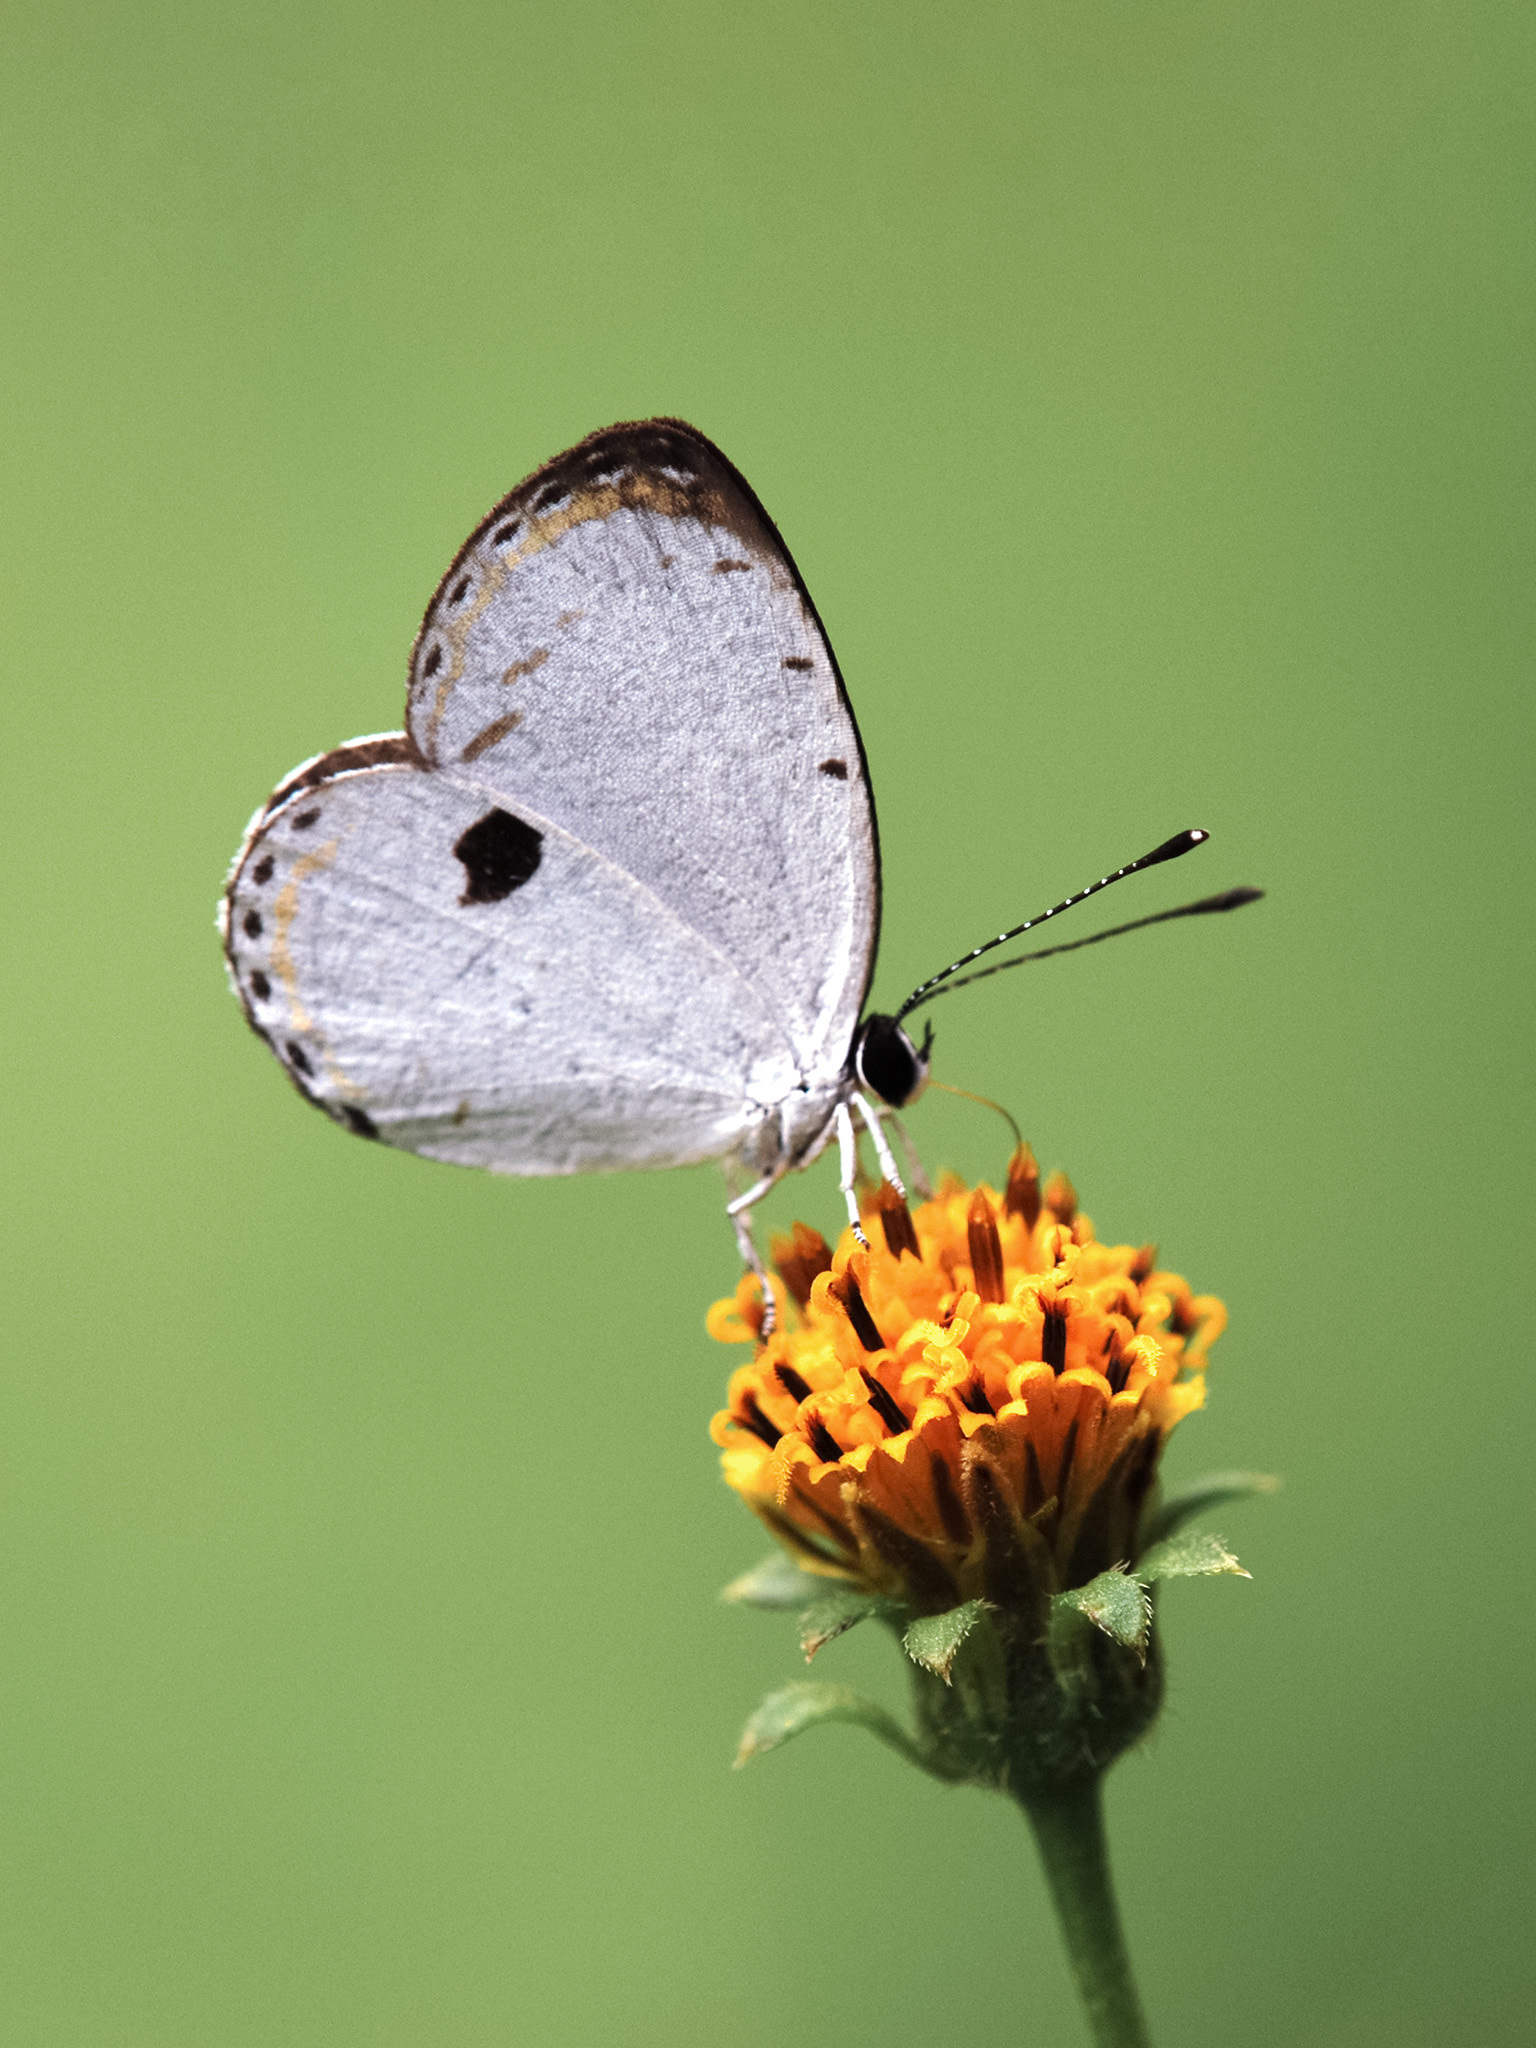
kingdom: Animalia
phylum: Arthropoda
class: Insecta
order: Lepidoptera
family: Lycaenidae
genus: Pithecops
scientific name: Pithecops corvus
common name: Forest quaker
